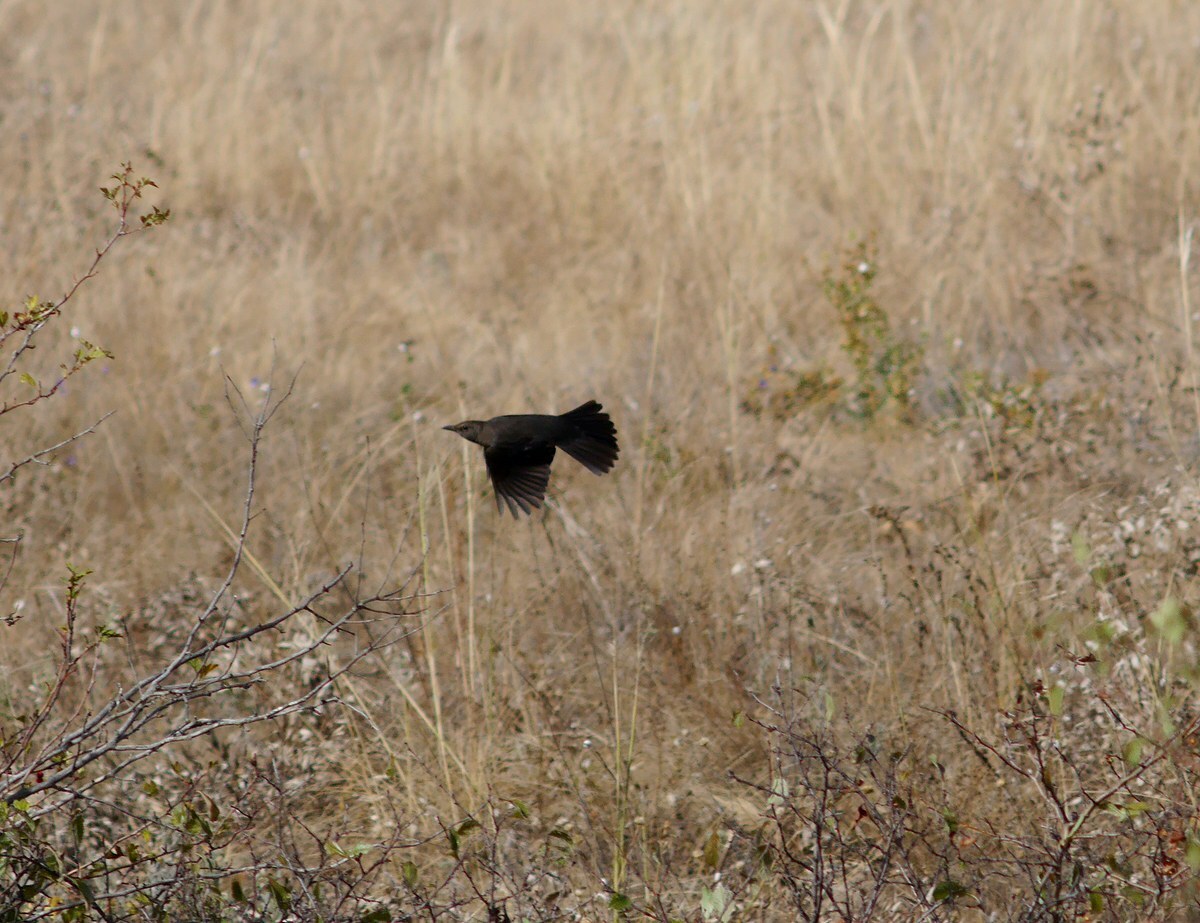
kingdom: Animalia
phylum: Chordata
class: Aves
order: Passeriformes
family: Turdidae
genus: Turdus
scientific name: Turdus merula
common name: Common blackbird
